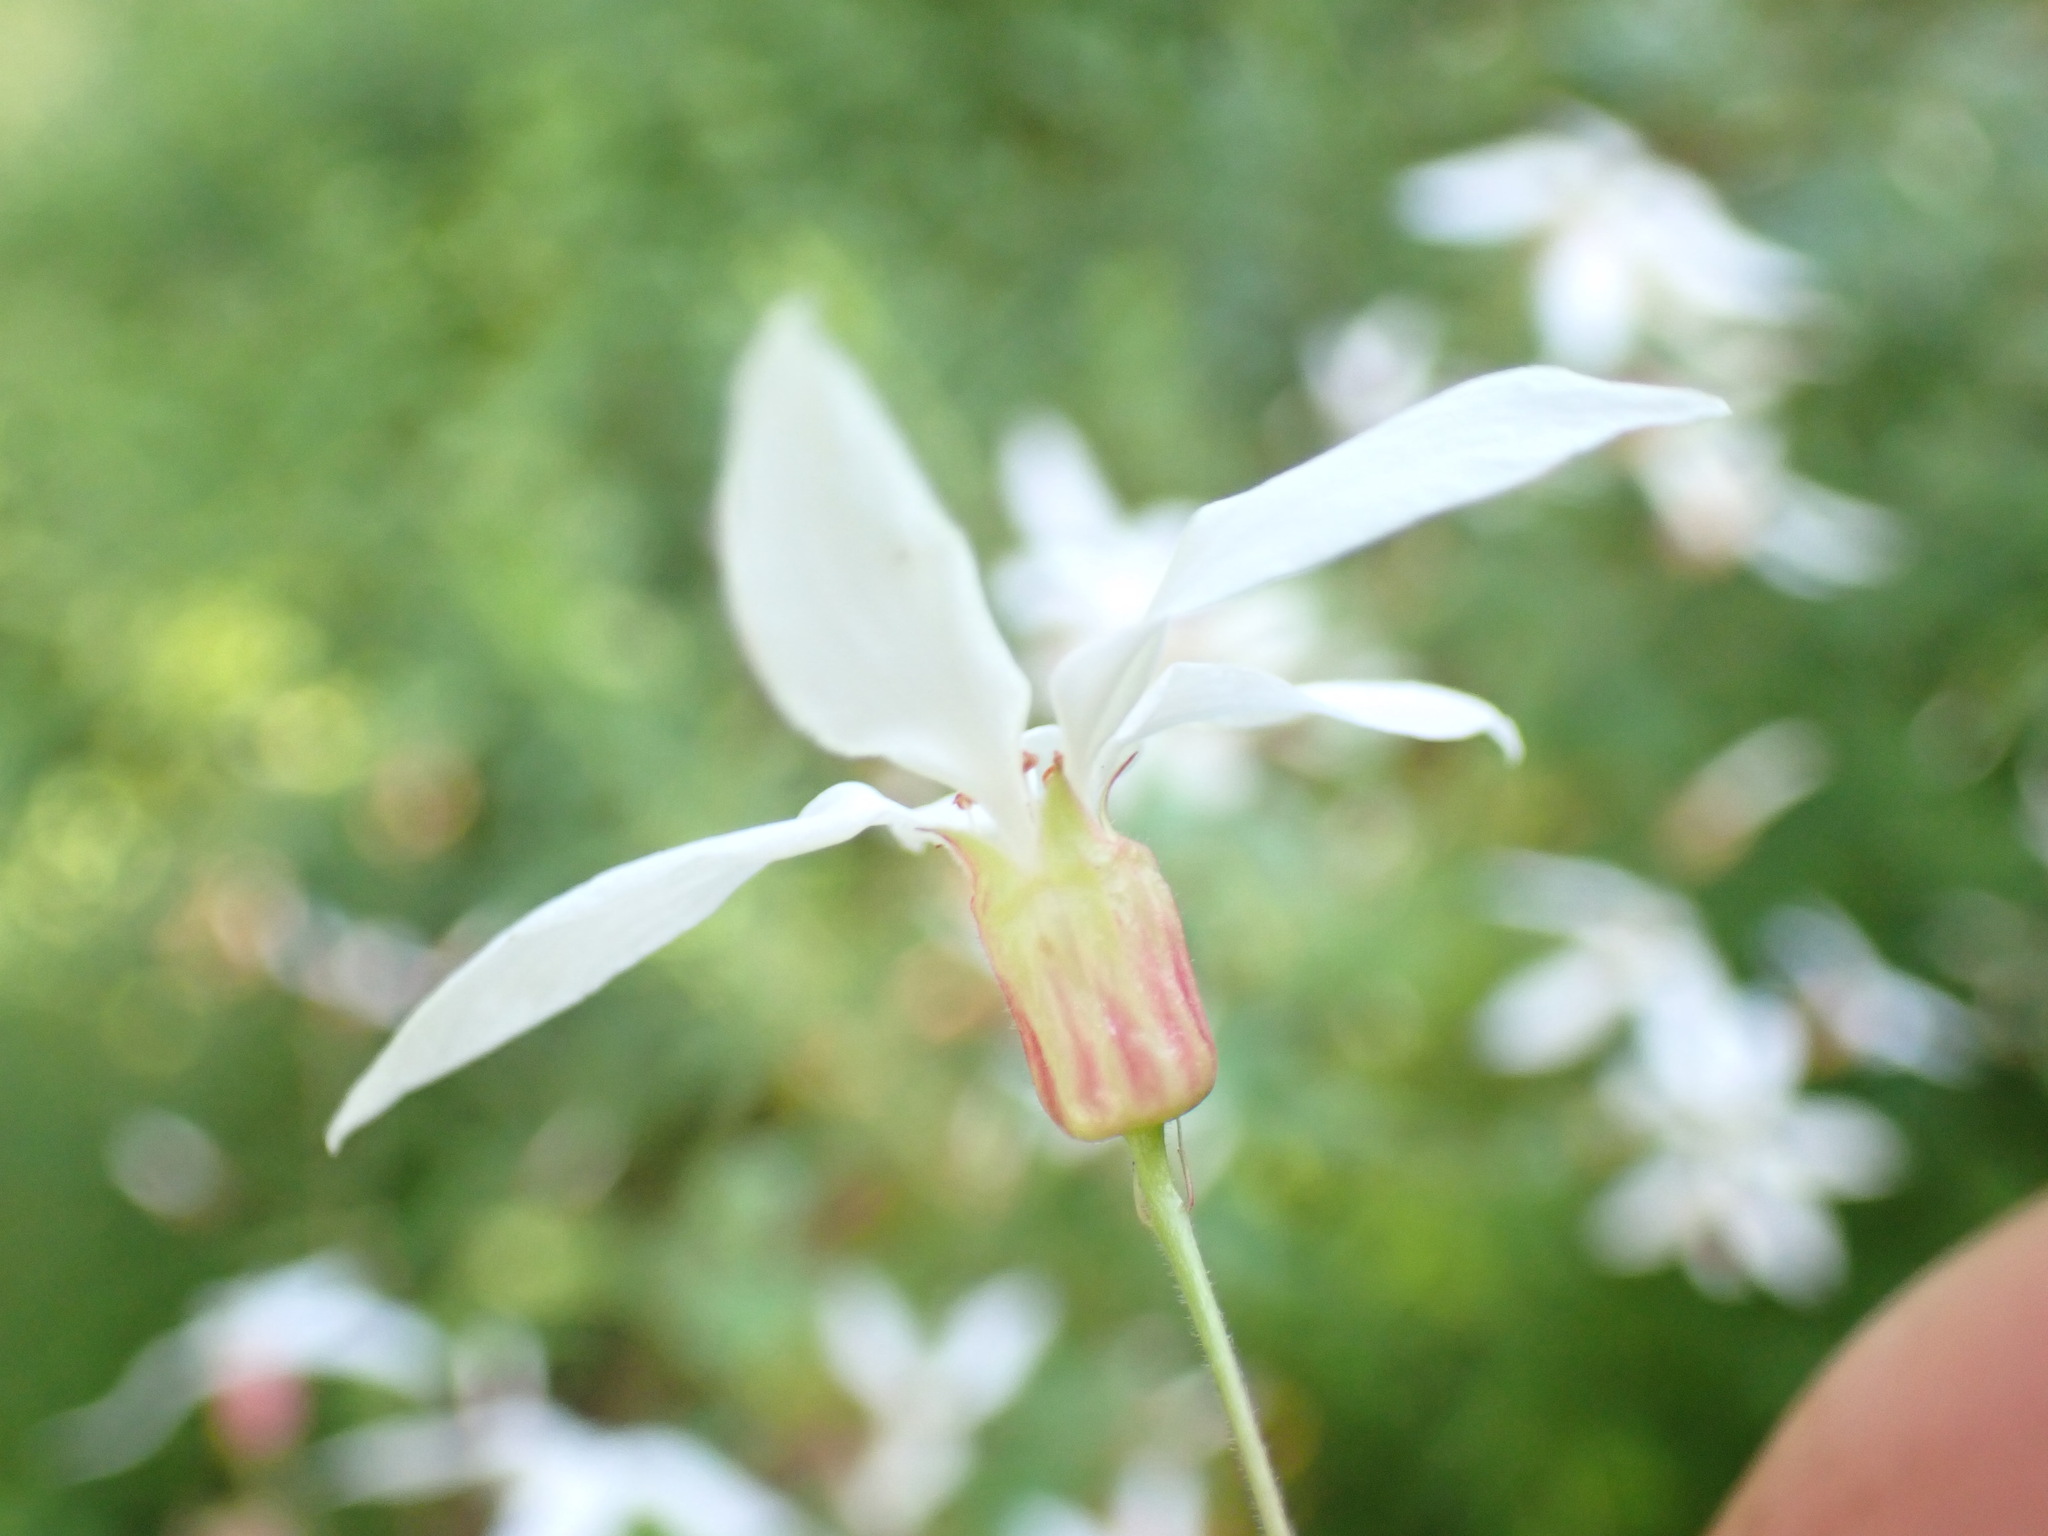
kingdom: Plantae
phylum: Tracheophyta
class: Magnoliopsida
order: Rosales
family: Rosaceae
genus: Gillenia
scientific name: Gillenia stipulata
